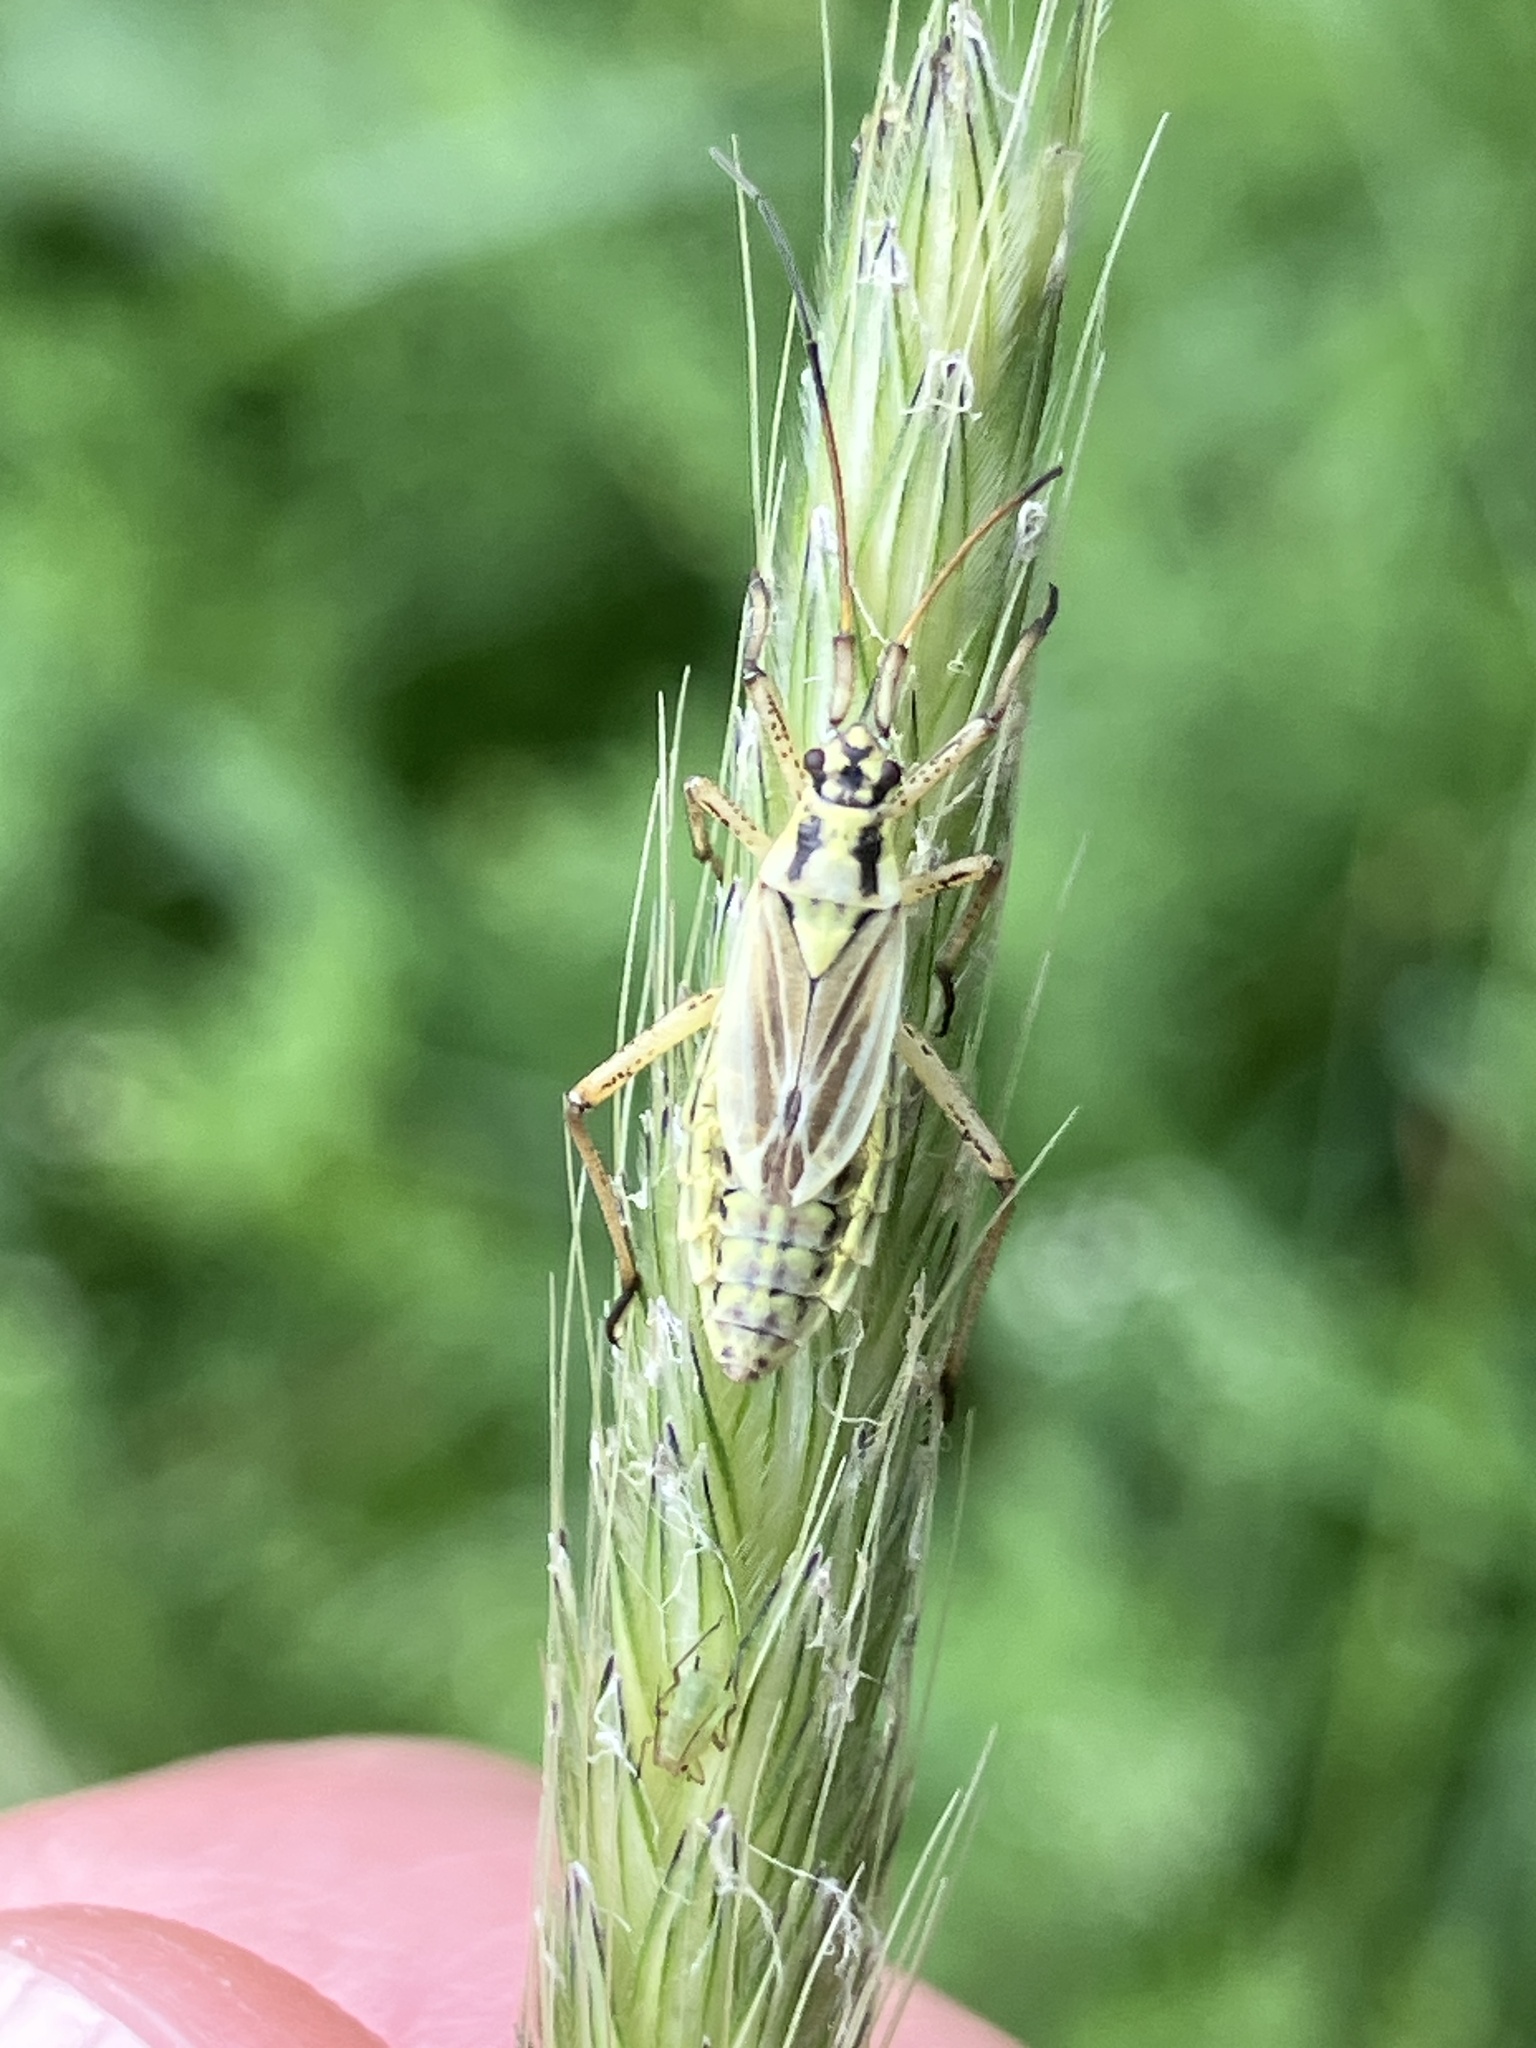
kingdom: Animalia
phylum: Arthropoda
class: Insecta
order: Hemiptera
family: Miridae
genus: Leptopterna
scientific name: Leptopterna dolabrata
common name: Meadow plant bug
